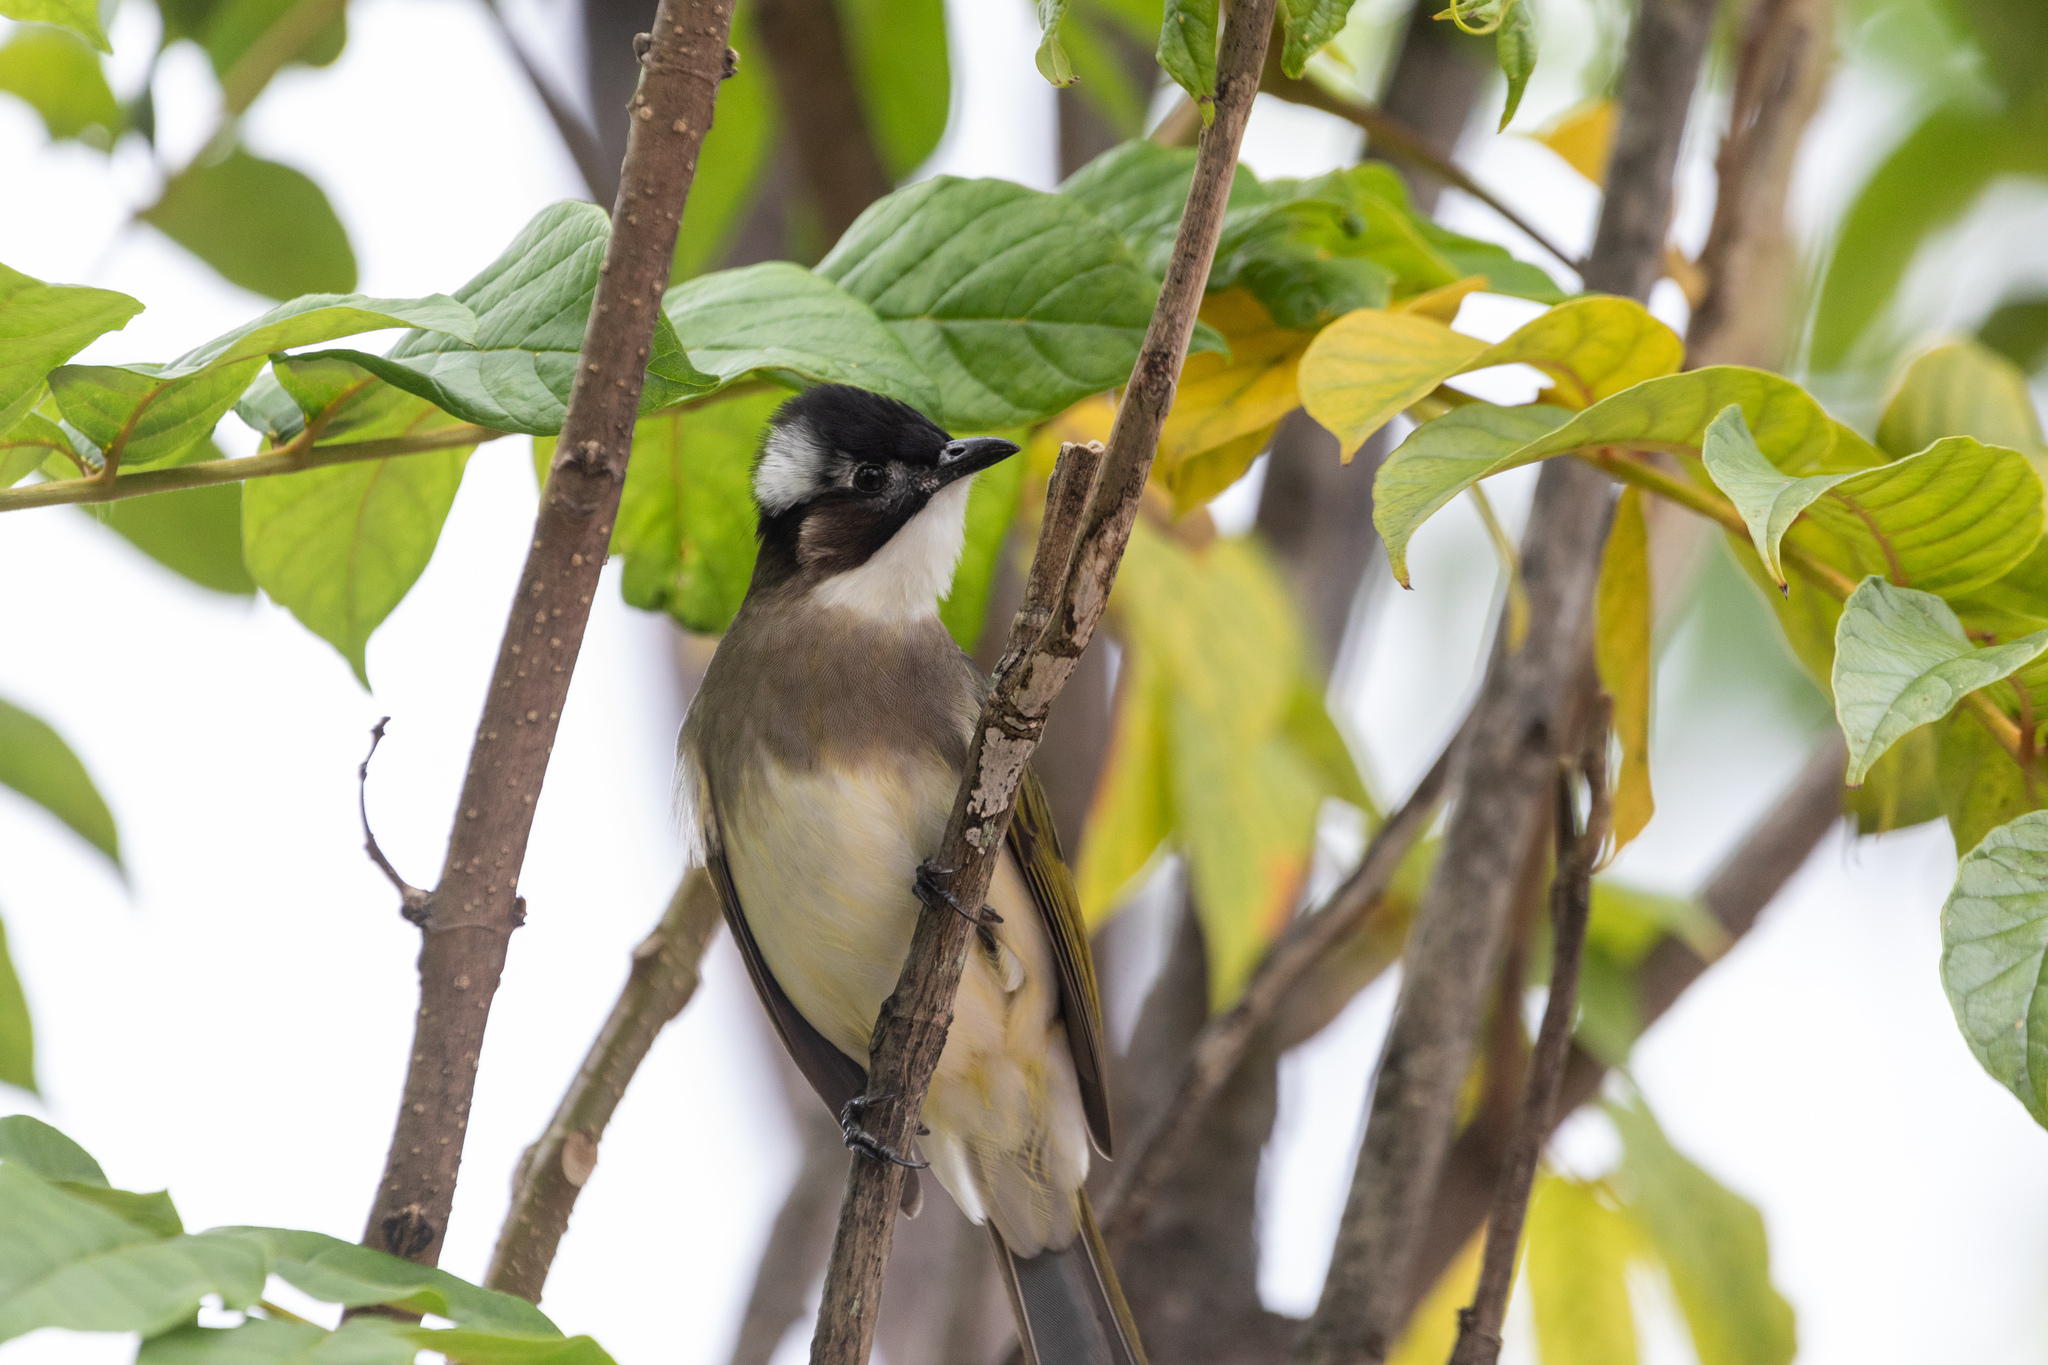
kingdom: Animalia
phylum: Chordata
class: Aves
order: Passeriformes
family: Pycnonotidae
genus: Pycnonotus
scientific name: Pycnonotus sinensis
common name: Light-vented bulbul
